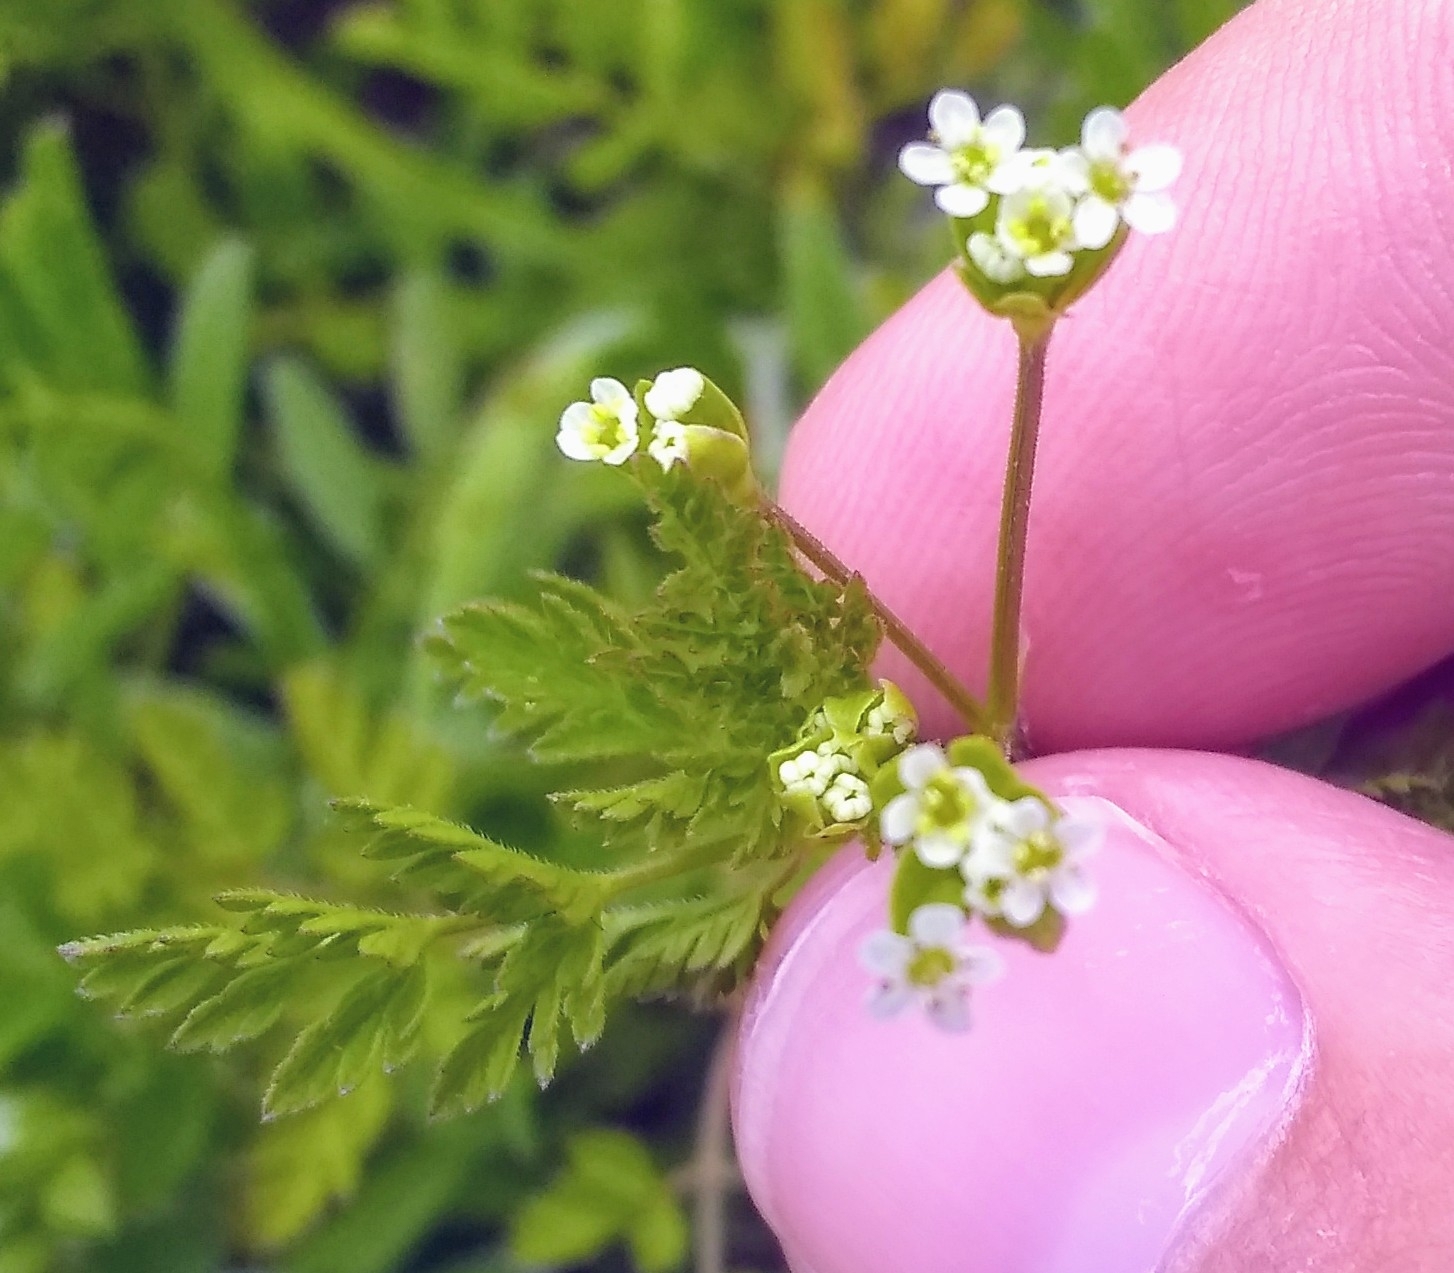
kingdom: Plantae
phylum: Tracheophyta
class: Magnoliopsida
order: Apiales
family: Apiaceae
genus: Chaerophyllum
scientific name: Chaerophyllum tainturieri
